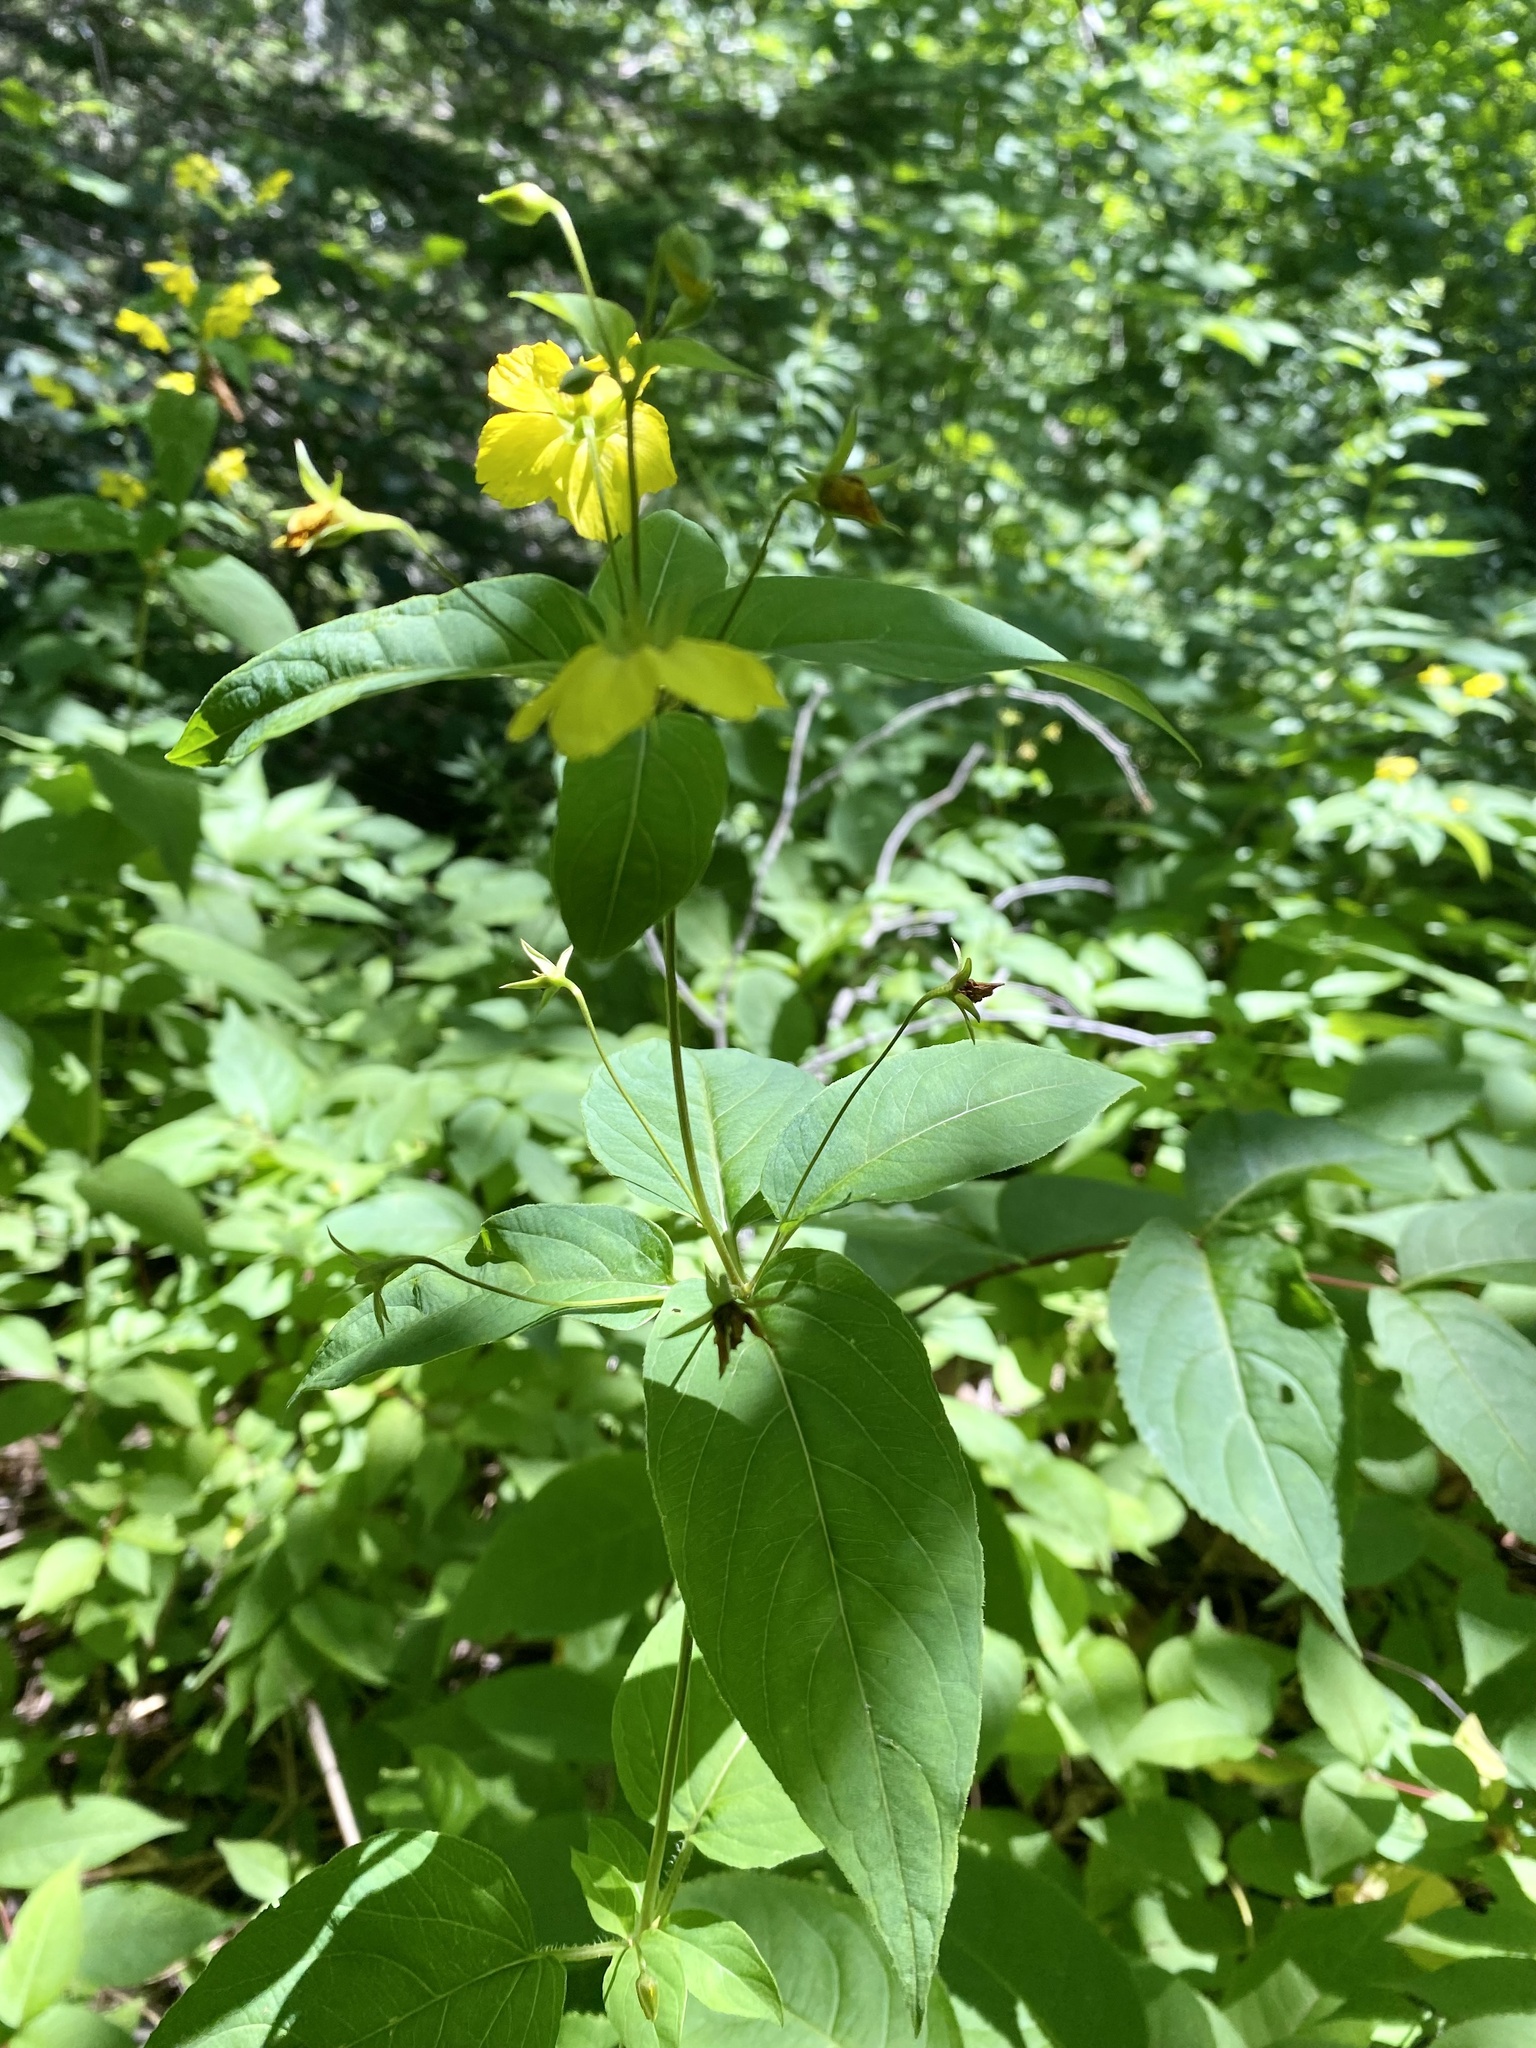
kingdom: Plantae
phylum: Tracheophyta
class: Magnoliopsida
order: Ericales
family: Primulaceae
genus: Lysimachia
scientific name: Lysimachia ciliata
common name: Fringed loosestrife
